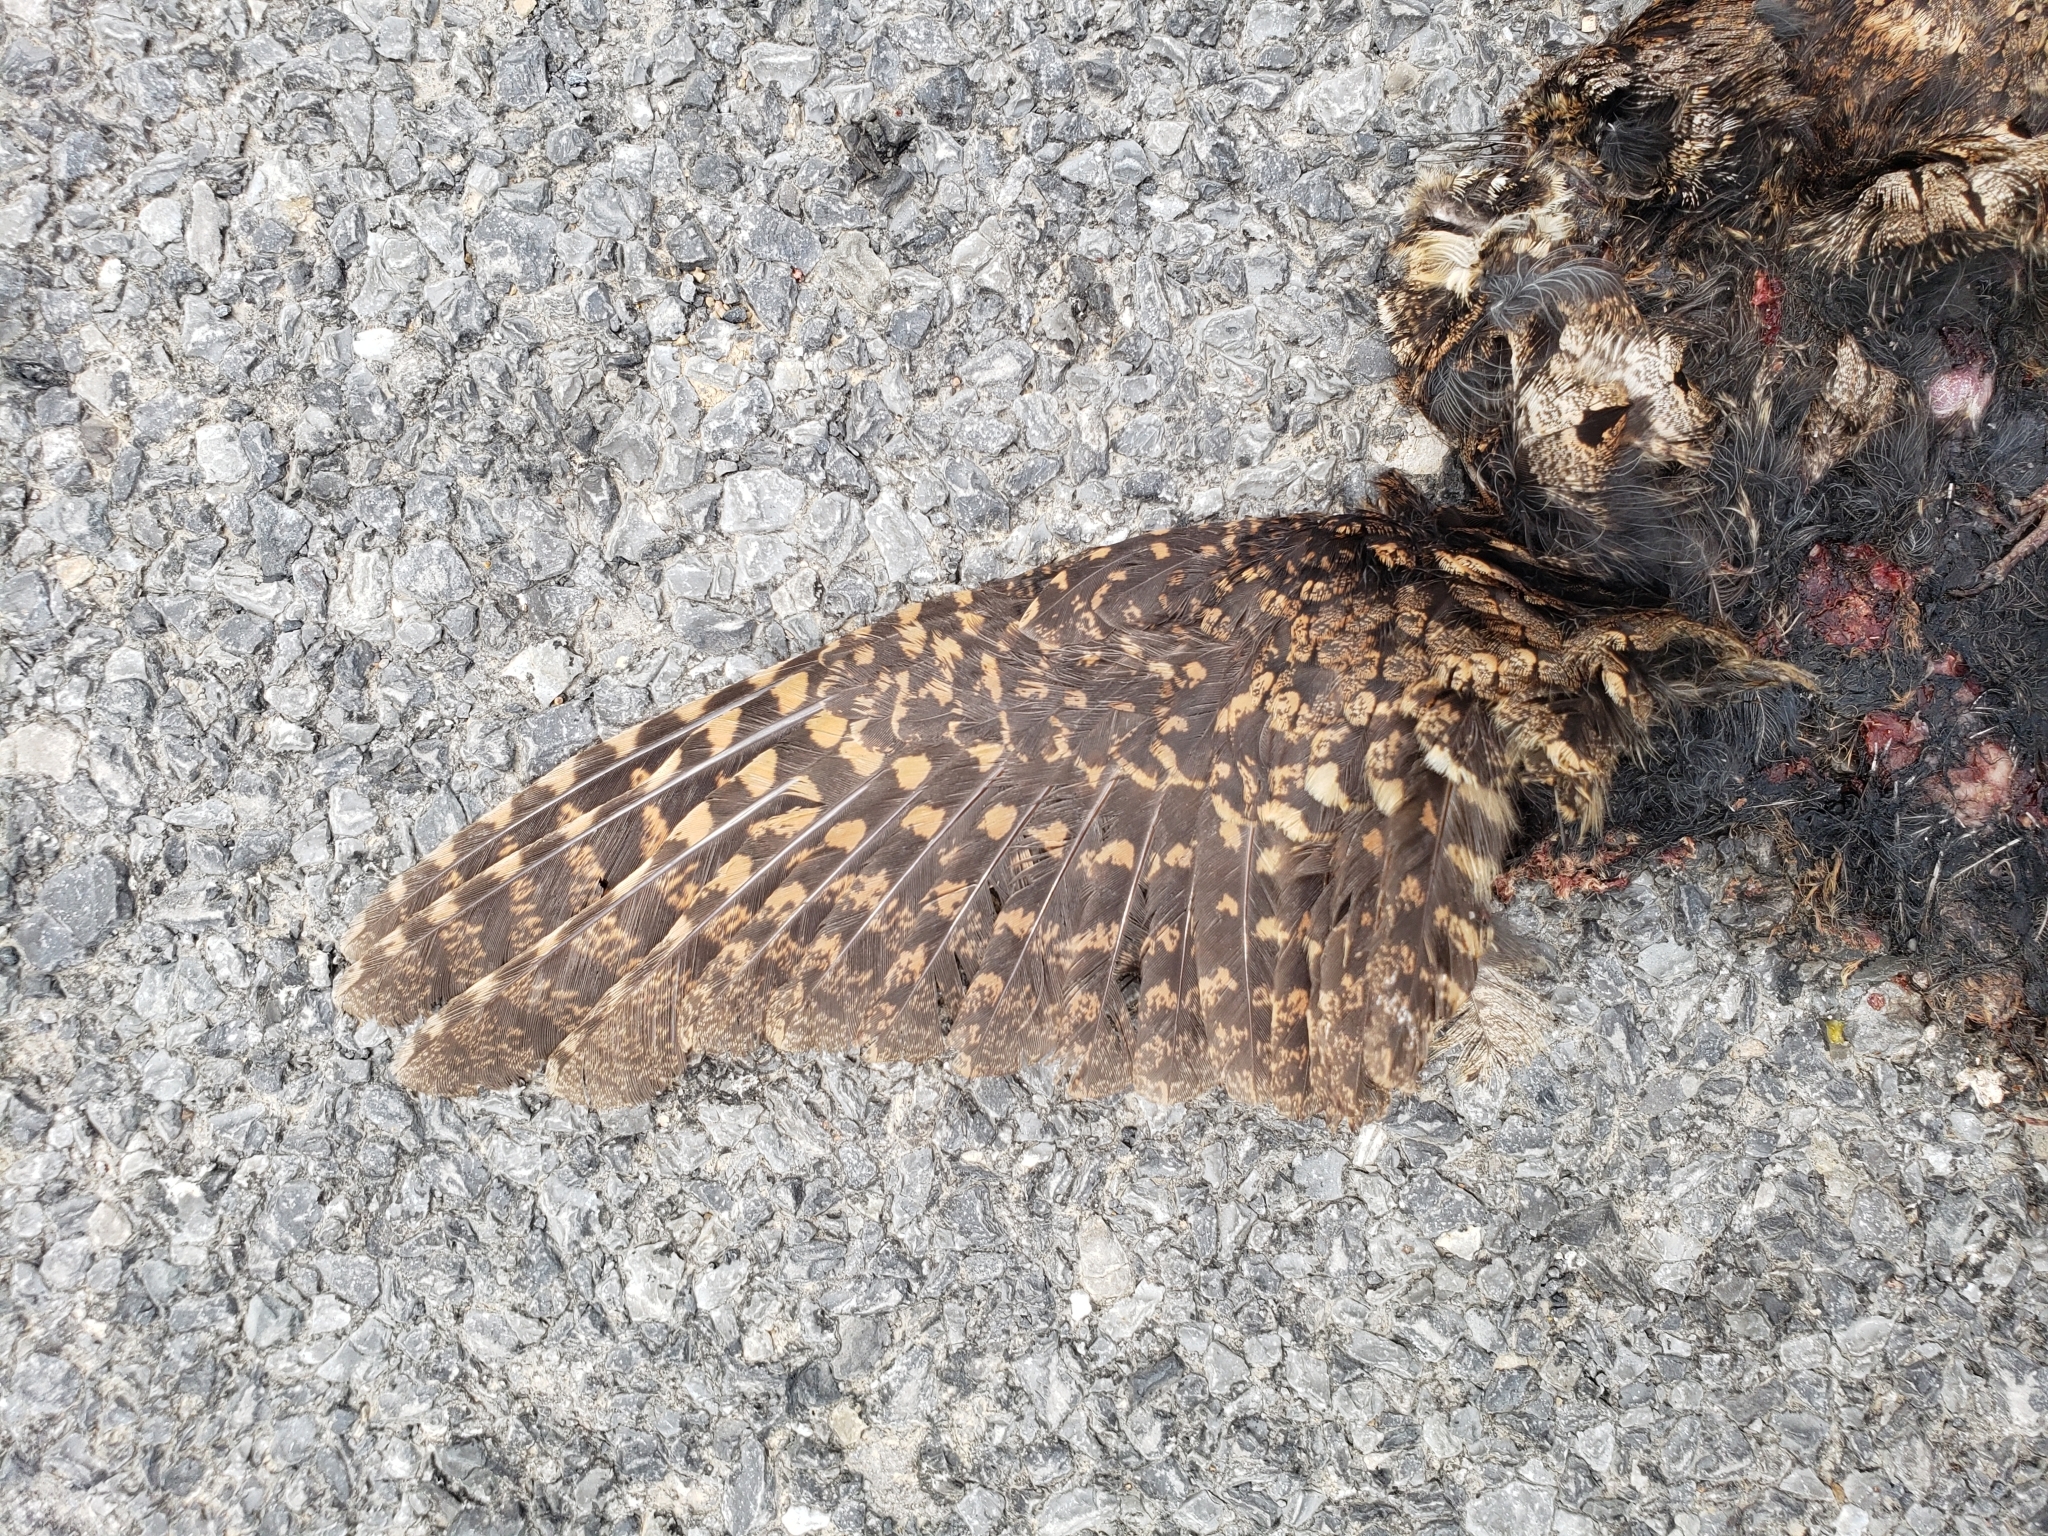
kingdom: Animalia
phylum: Chordata
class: Aves
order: Caprimulgiformes
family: Caprimulgidae
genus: Antrostomus
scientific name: Antrostomus vociferus
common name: Eastern whip-poor-will
